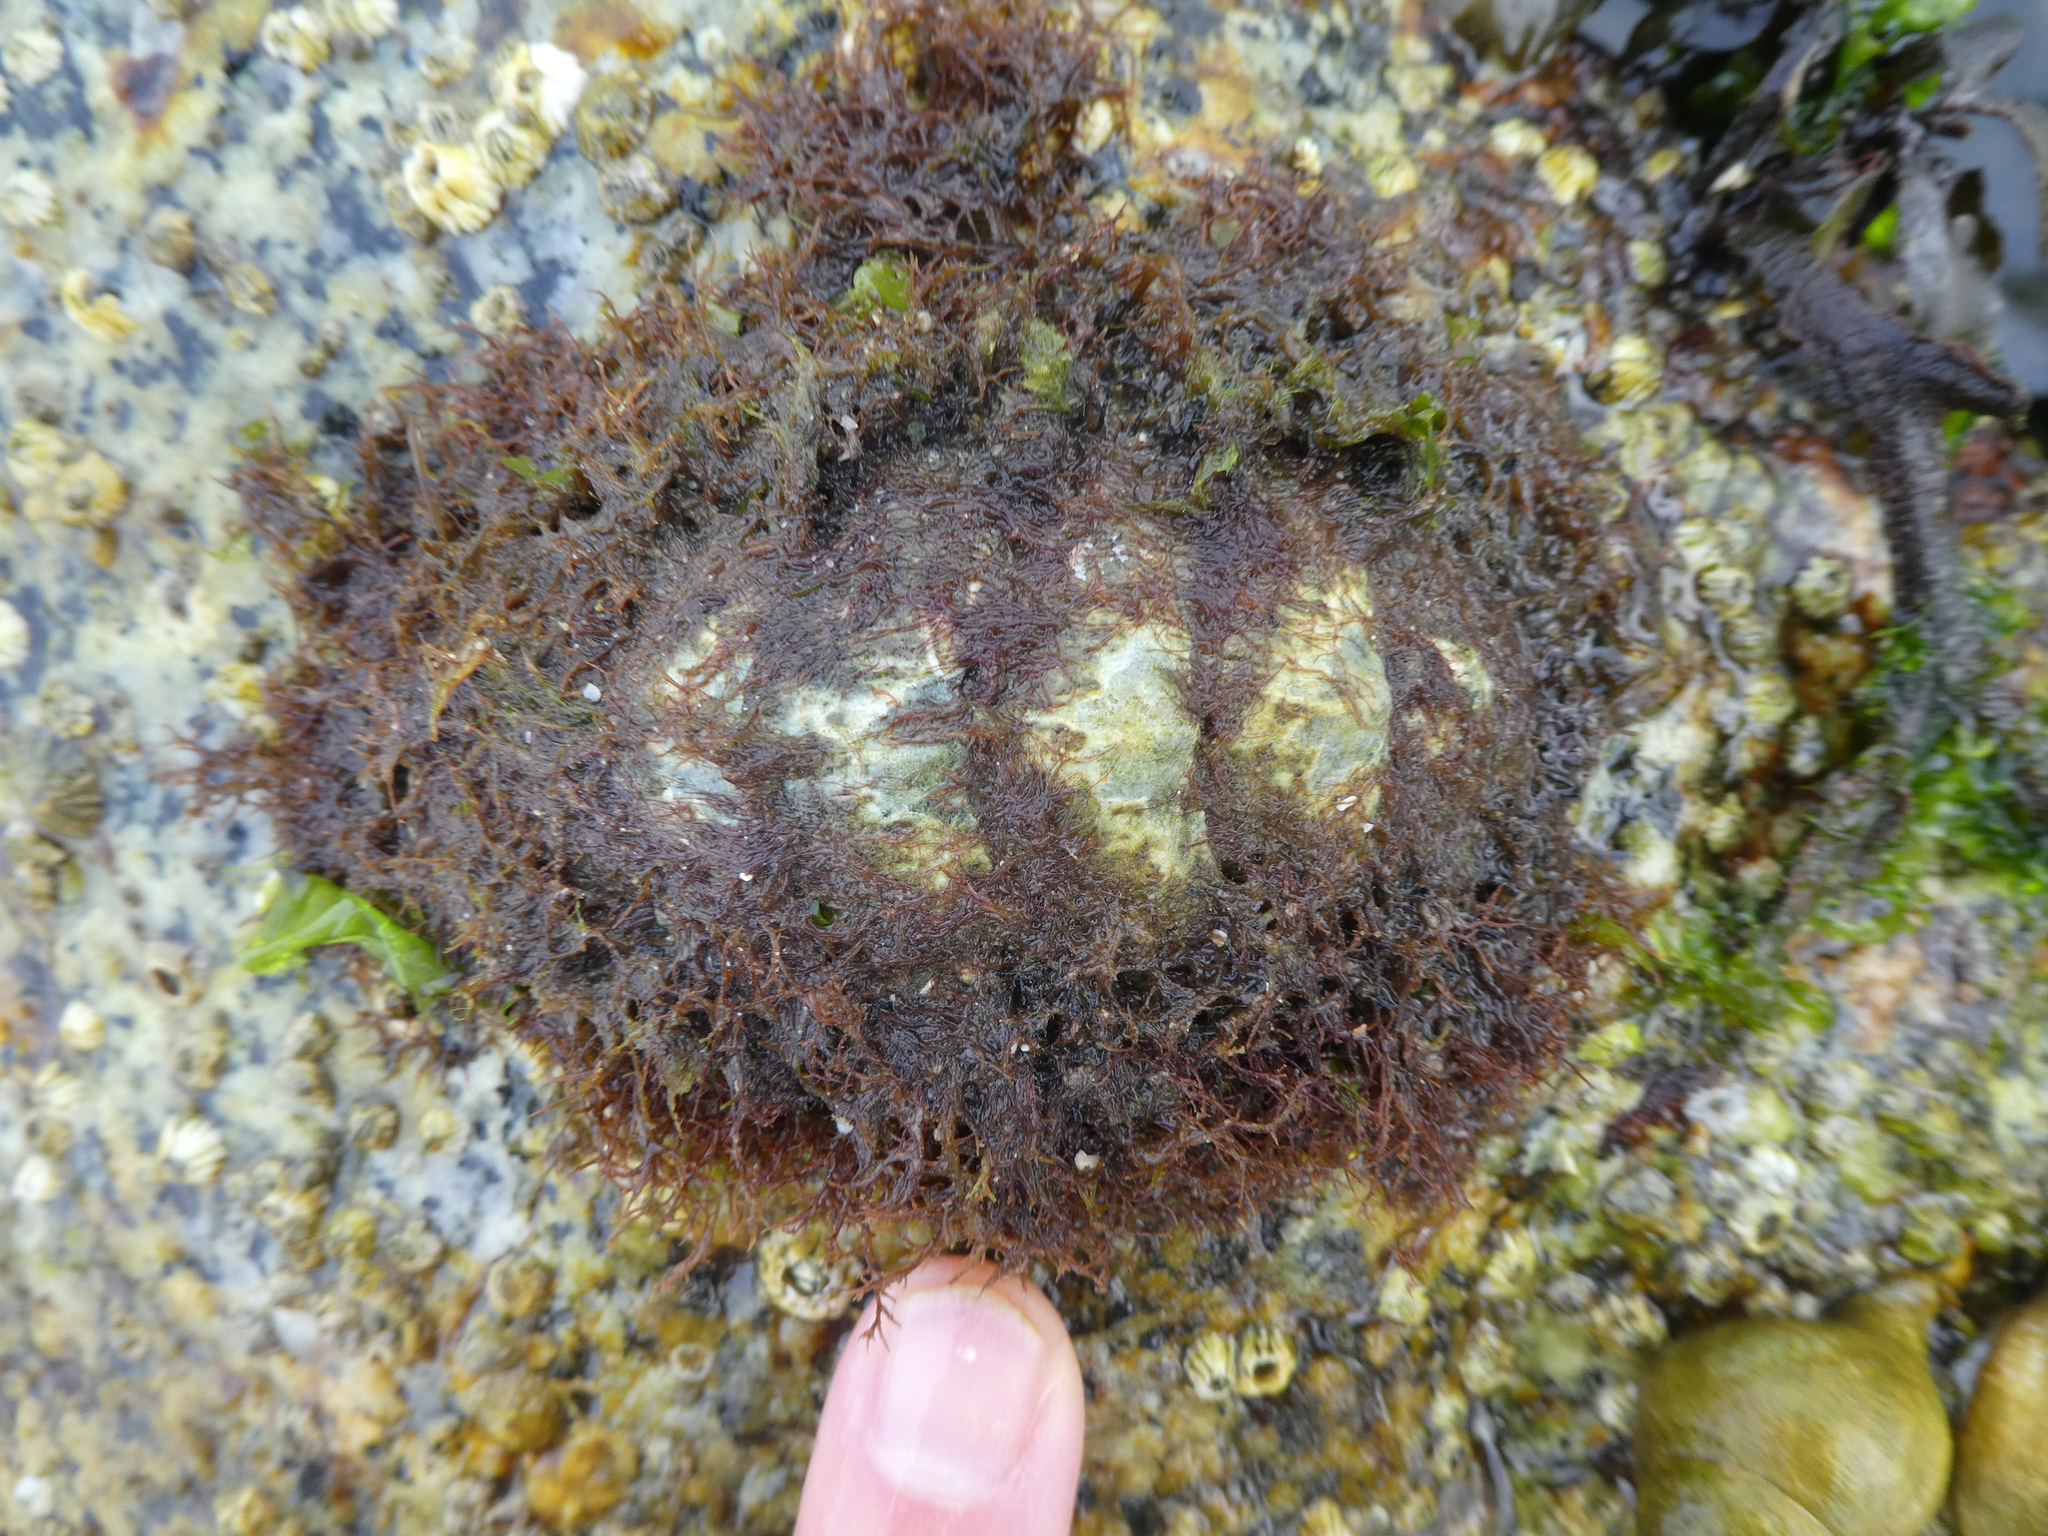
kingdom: Animalia
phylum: Mollusca
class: Polyplacophora
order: Chitonida
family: Mopaliidae
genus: Mopalia
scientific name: Mopalia muscosa
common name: Mossy chiton
